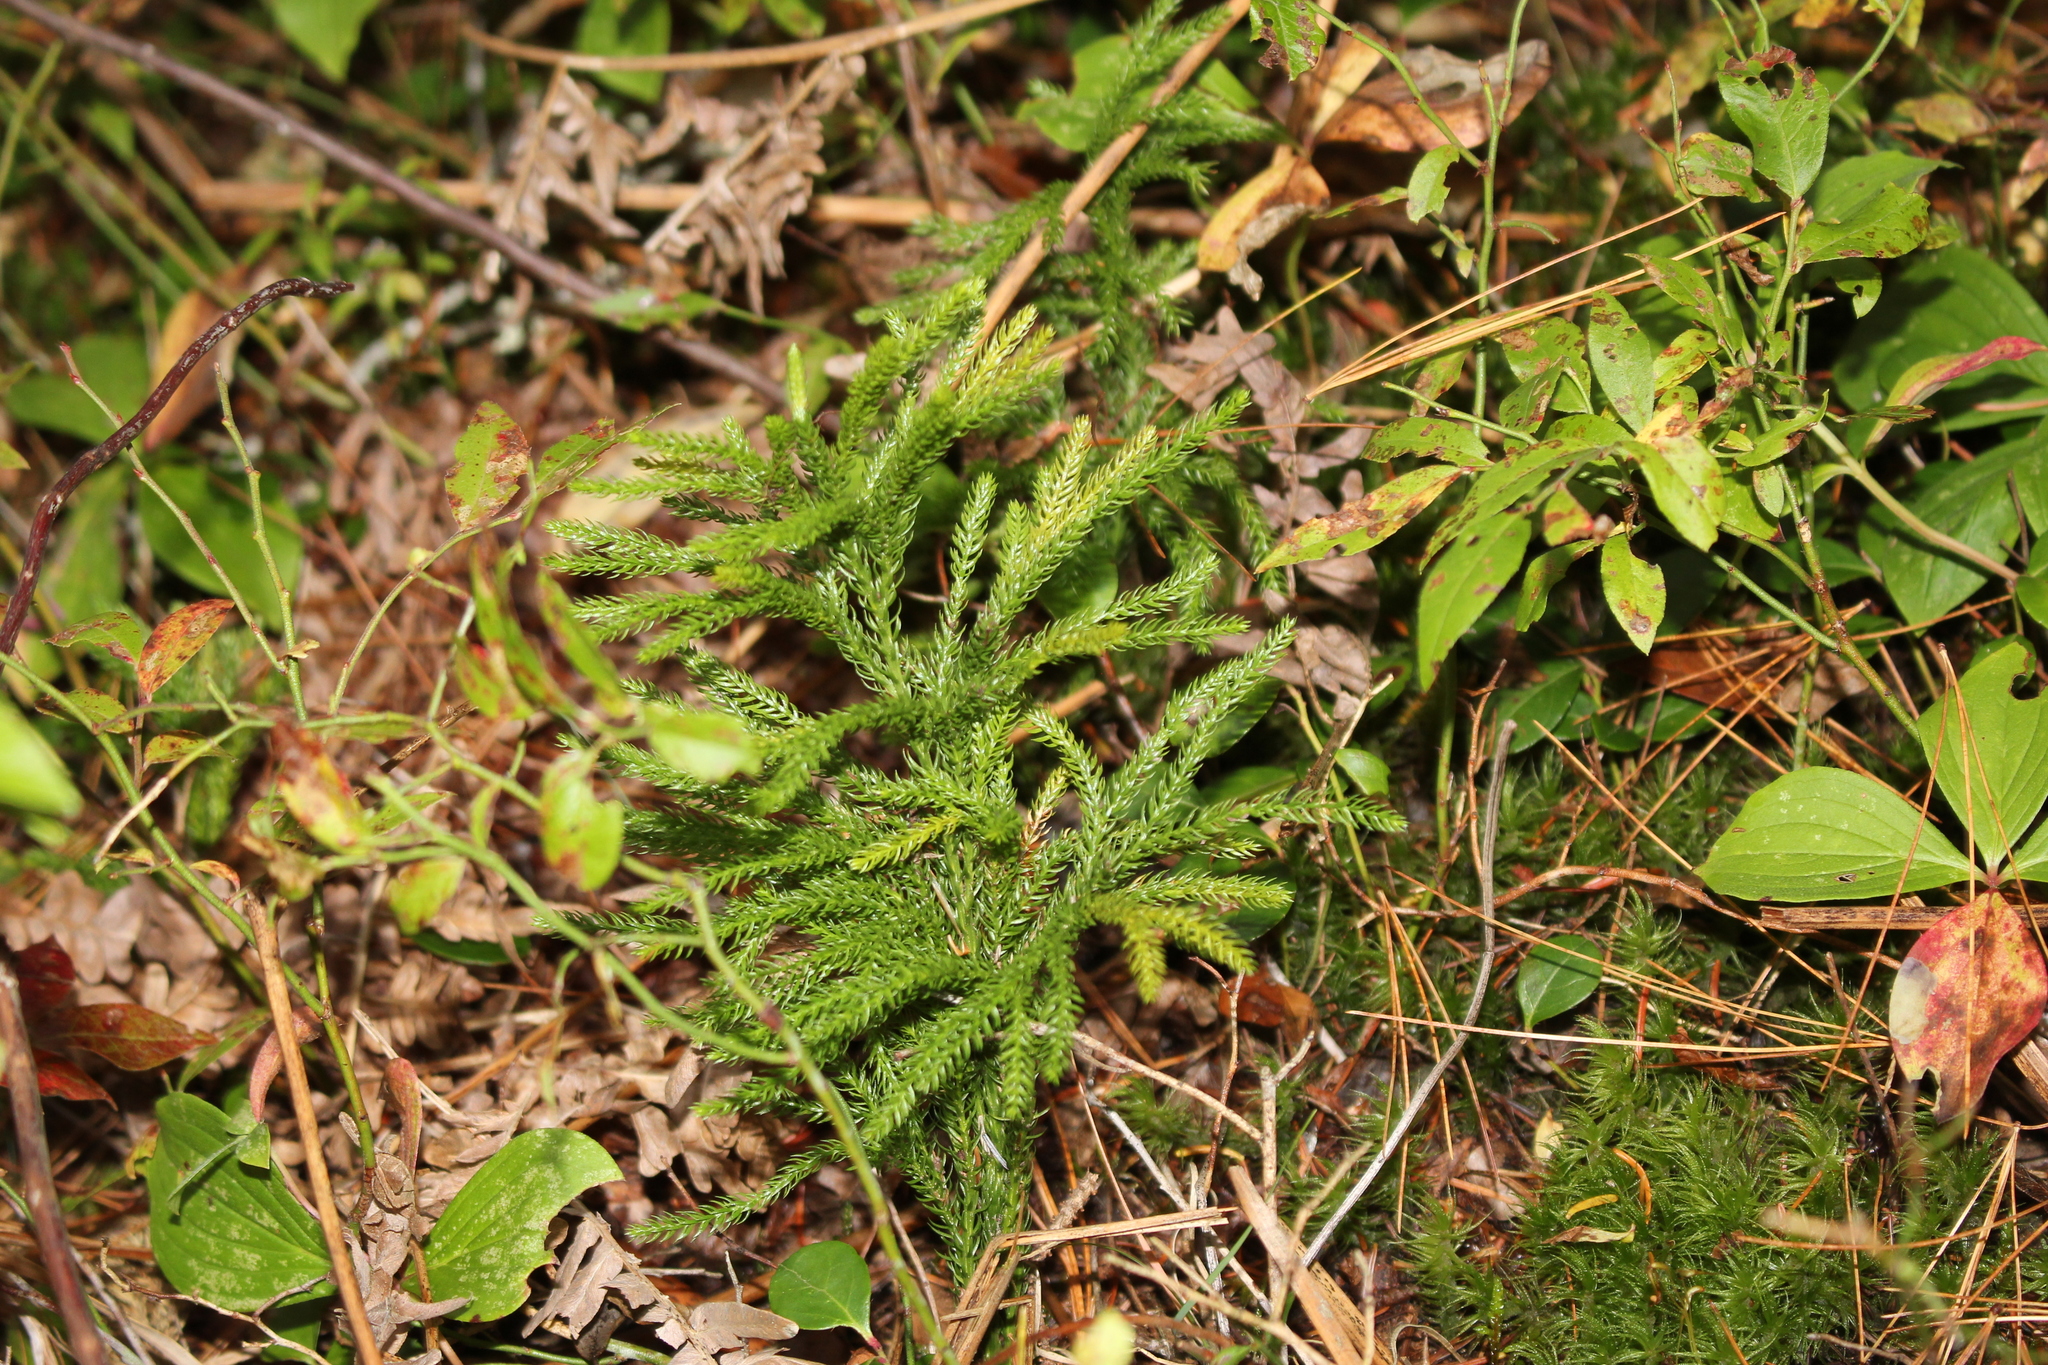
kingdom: Plantae
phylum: Tracheophyta
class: Lycopodiopsida
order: Lycopodiales
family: Lycopodiaceae
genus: Dendrolycopodium
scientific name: Dendrolycopodium dendroideum
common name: Northern tree-clubmoss
